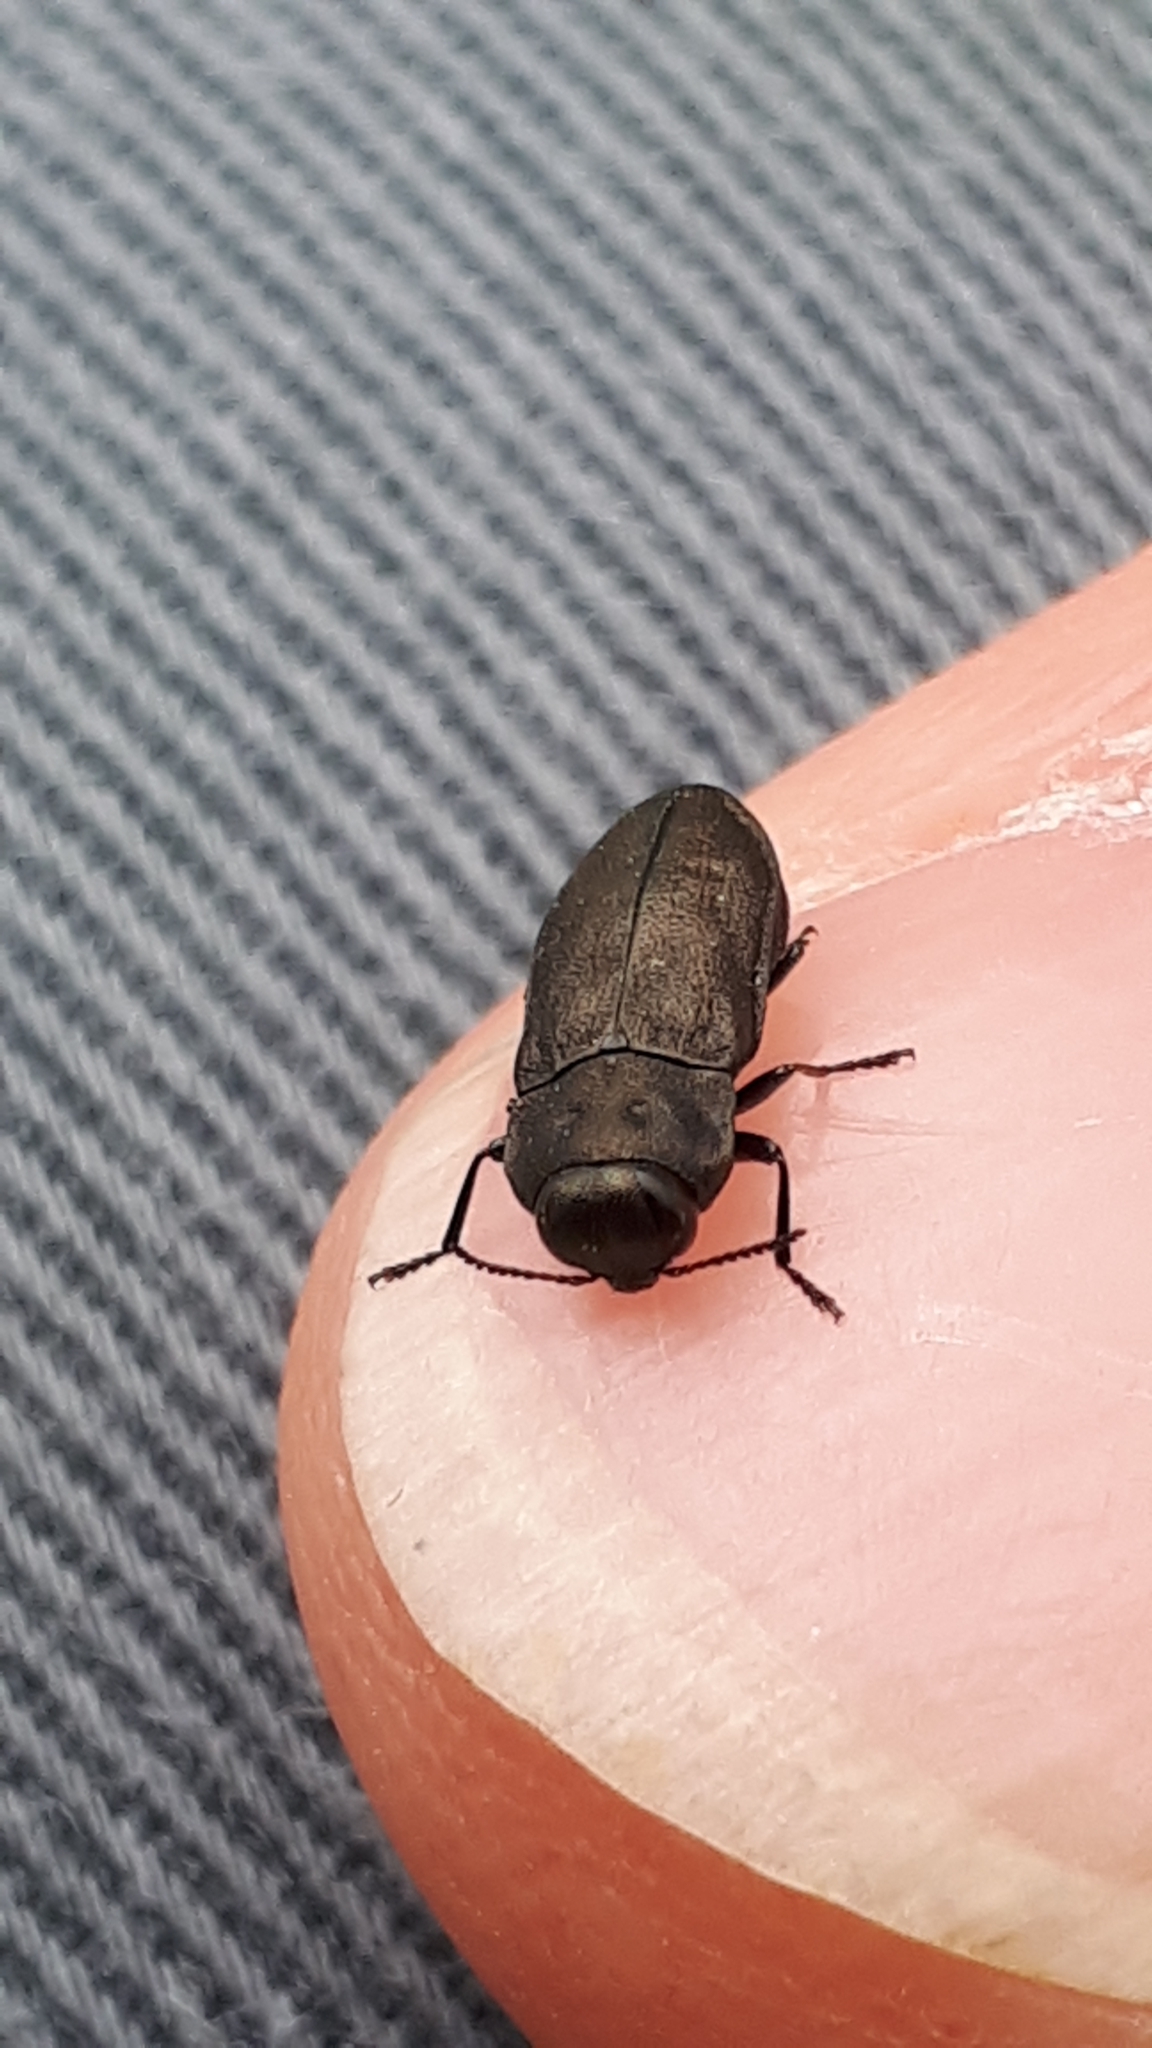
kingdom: Animalia
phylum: Arthropoda
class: Insecta
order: Coleoptera
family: Buprestidae
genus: Anthaxia
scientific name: Anthaxia quadripunctata
